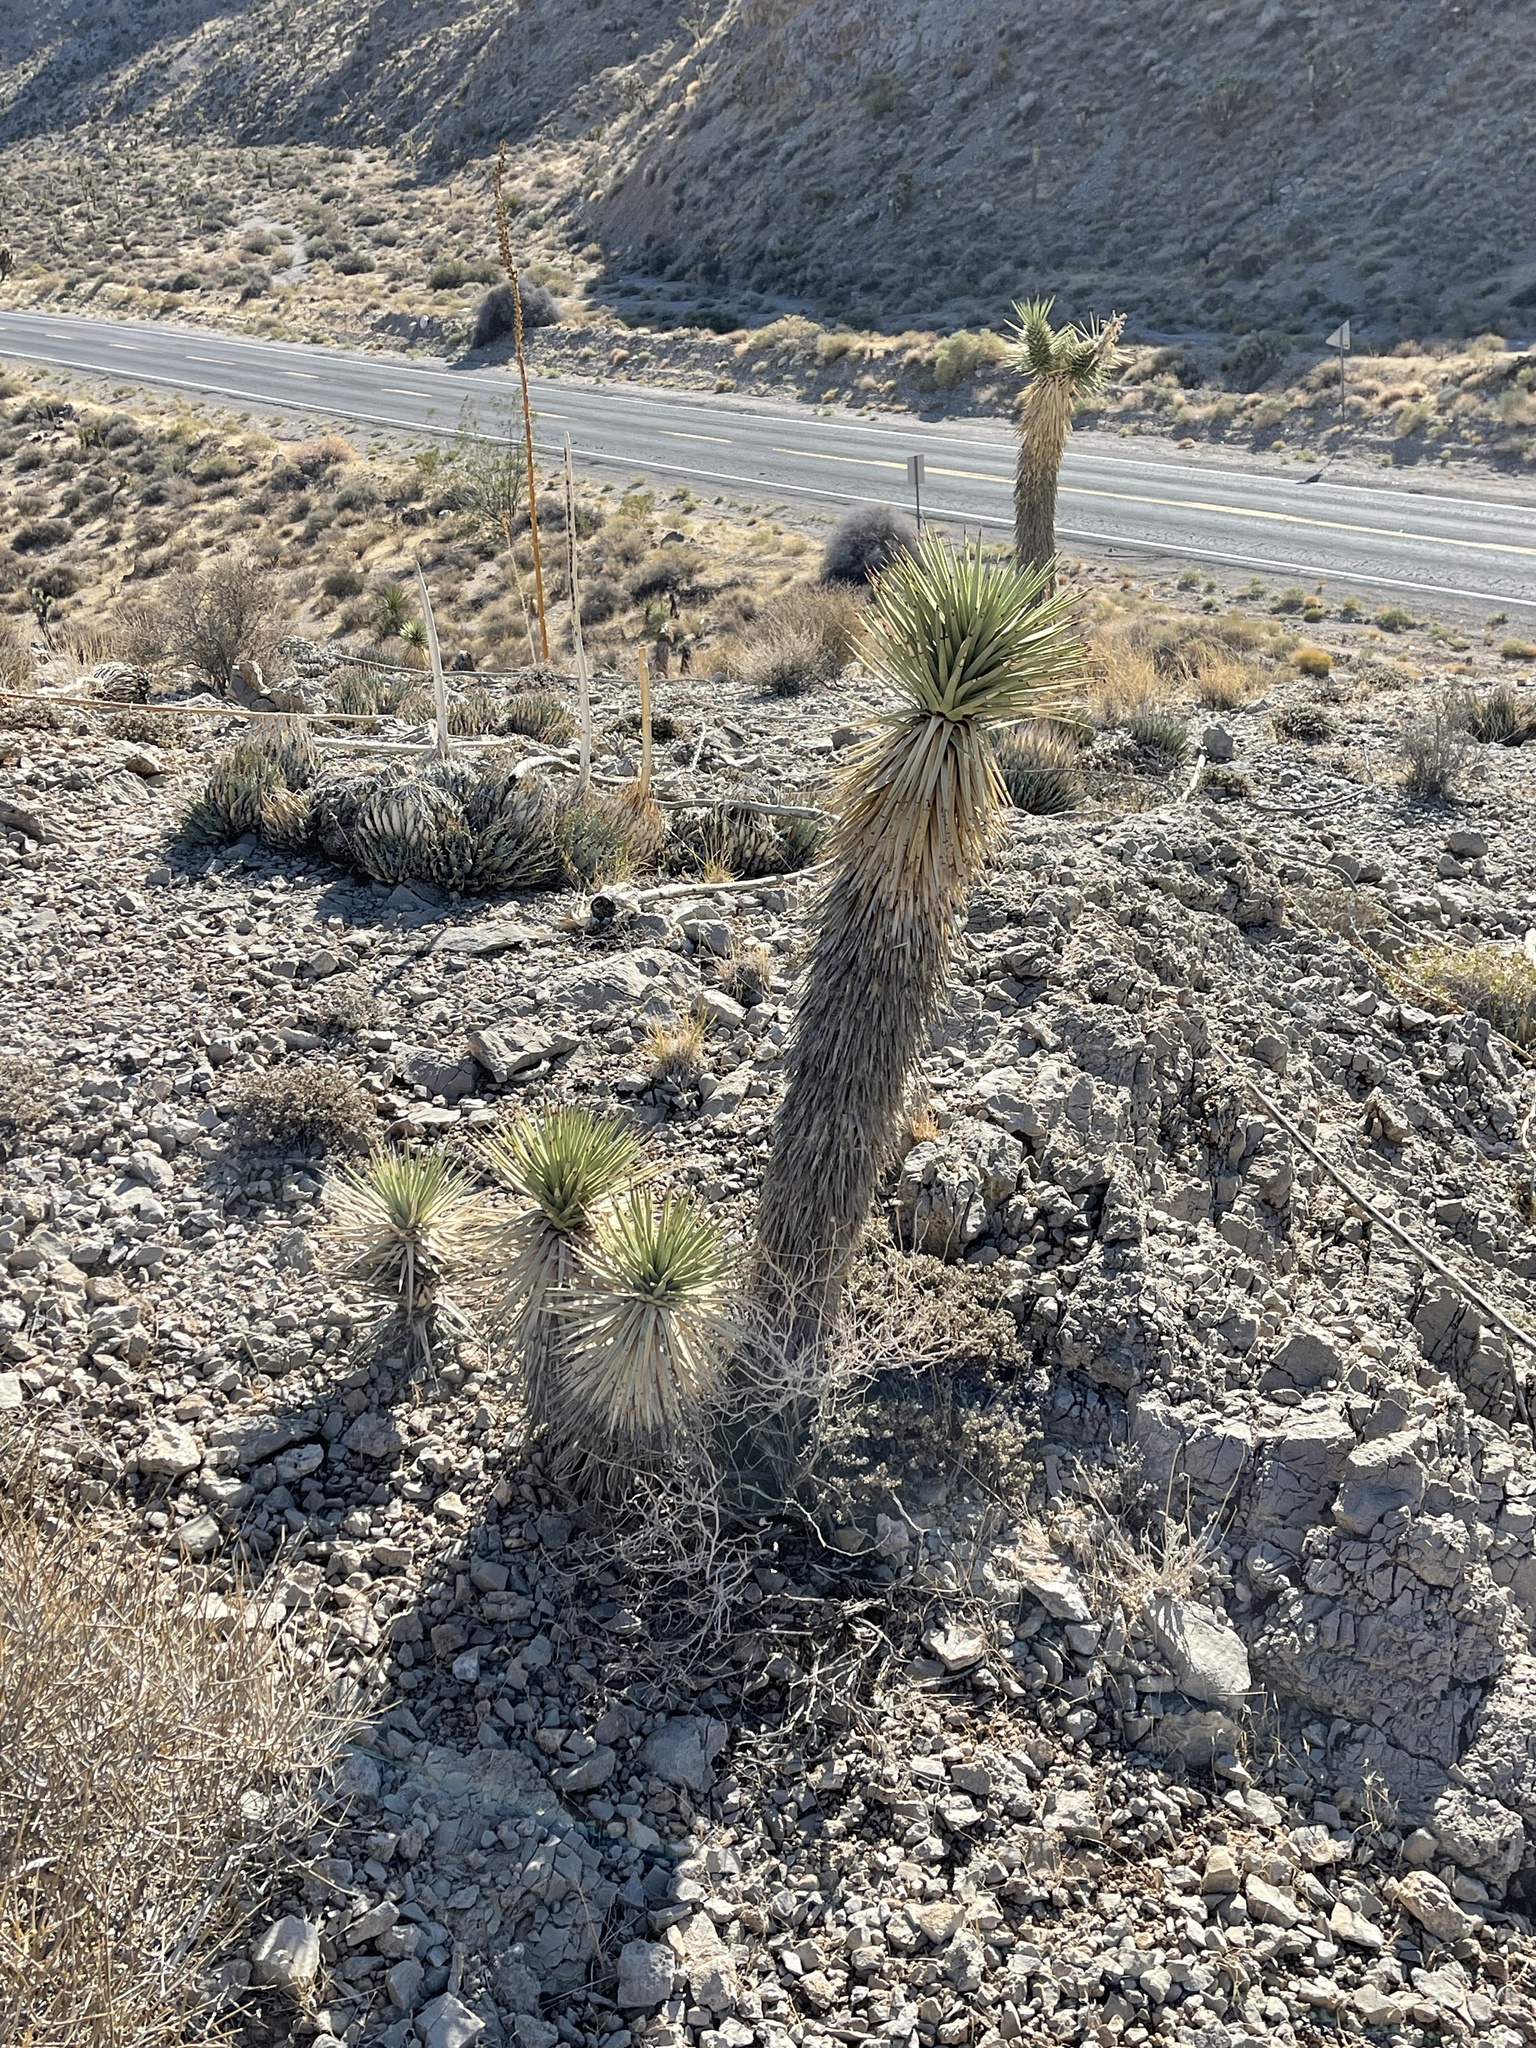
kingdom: Plantae
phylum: Tracheophyta
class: Liliopsida
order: Asparagales
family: Asparagaceae
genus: Yucca
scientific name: Yucca brevifolia
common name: Joshua tree
